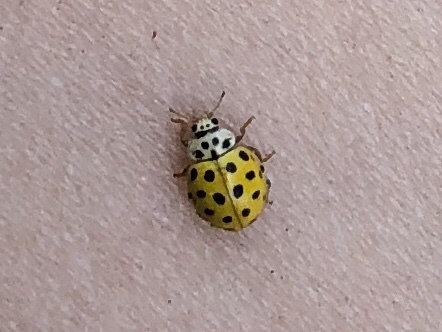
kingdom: Animalia
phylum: Arthropoda
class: Insecta
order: Coleoptera
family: Coccinellidae
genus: Psyllobora
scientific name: Psyllobora vigintiduopunctata
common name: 22-spot ladybird
